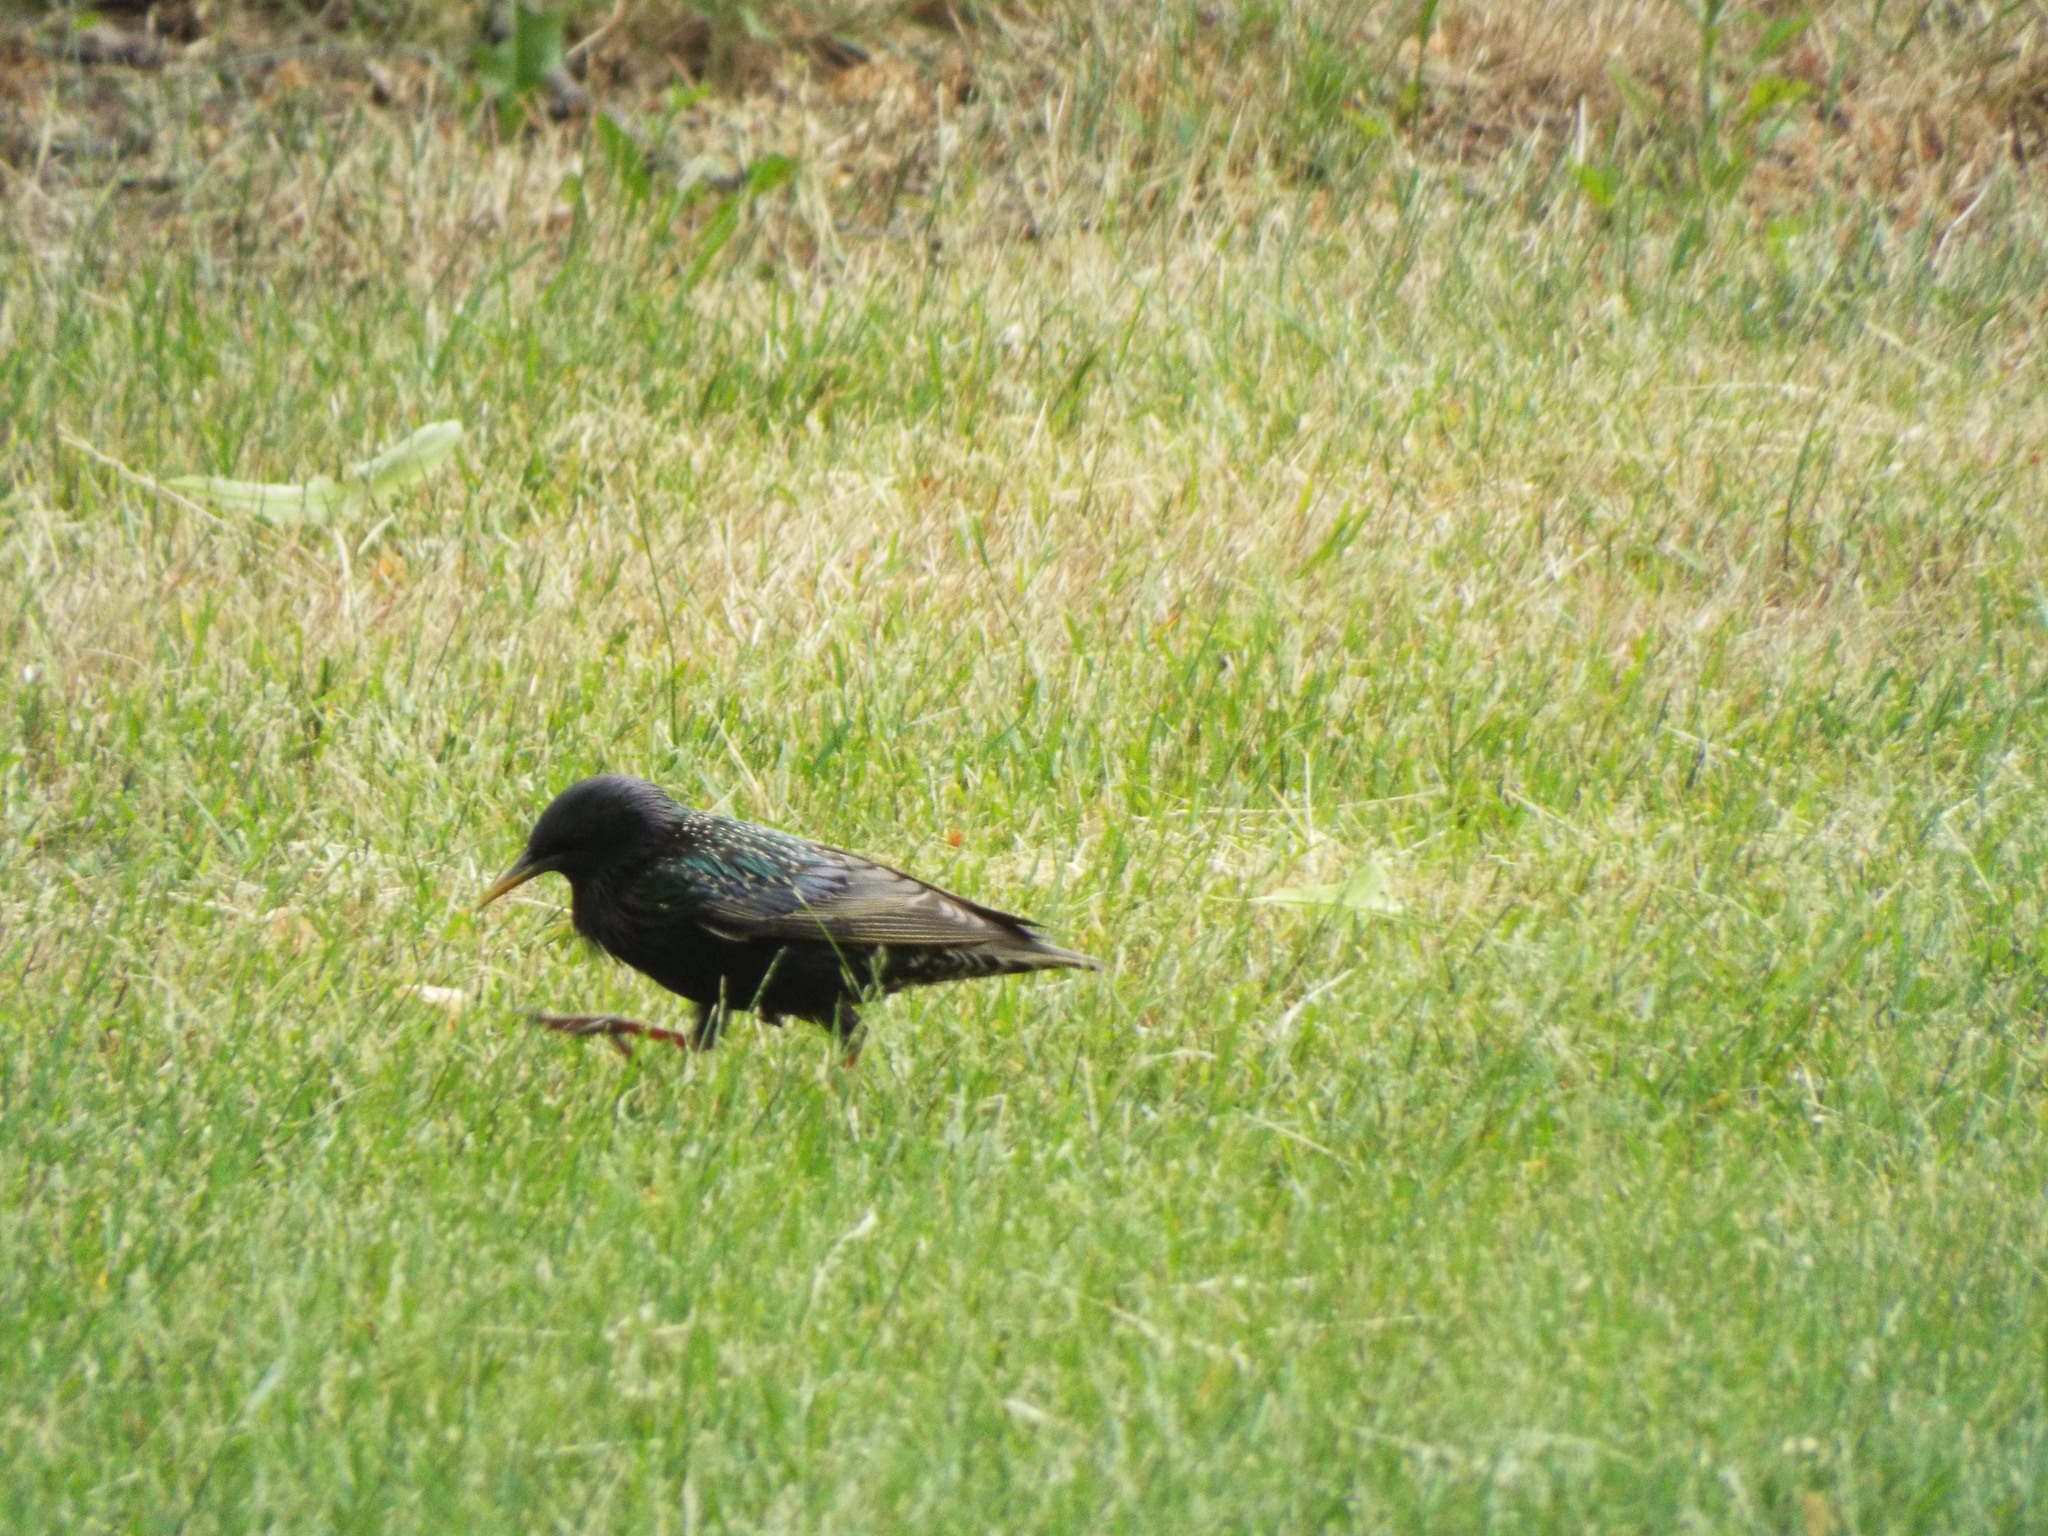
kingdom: Animalia
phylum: Chordata
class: Aves
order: Passeriformes
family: Sturnidae
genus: Sturnus
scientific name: Sturnus vulgaris
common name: Common starling
